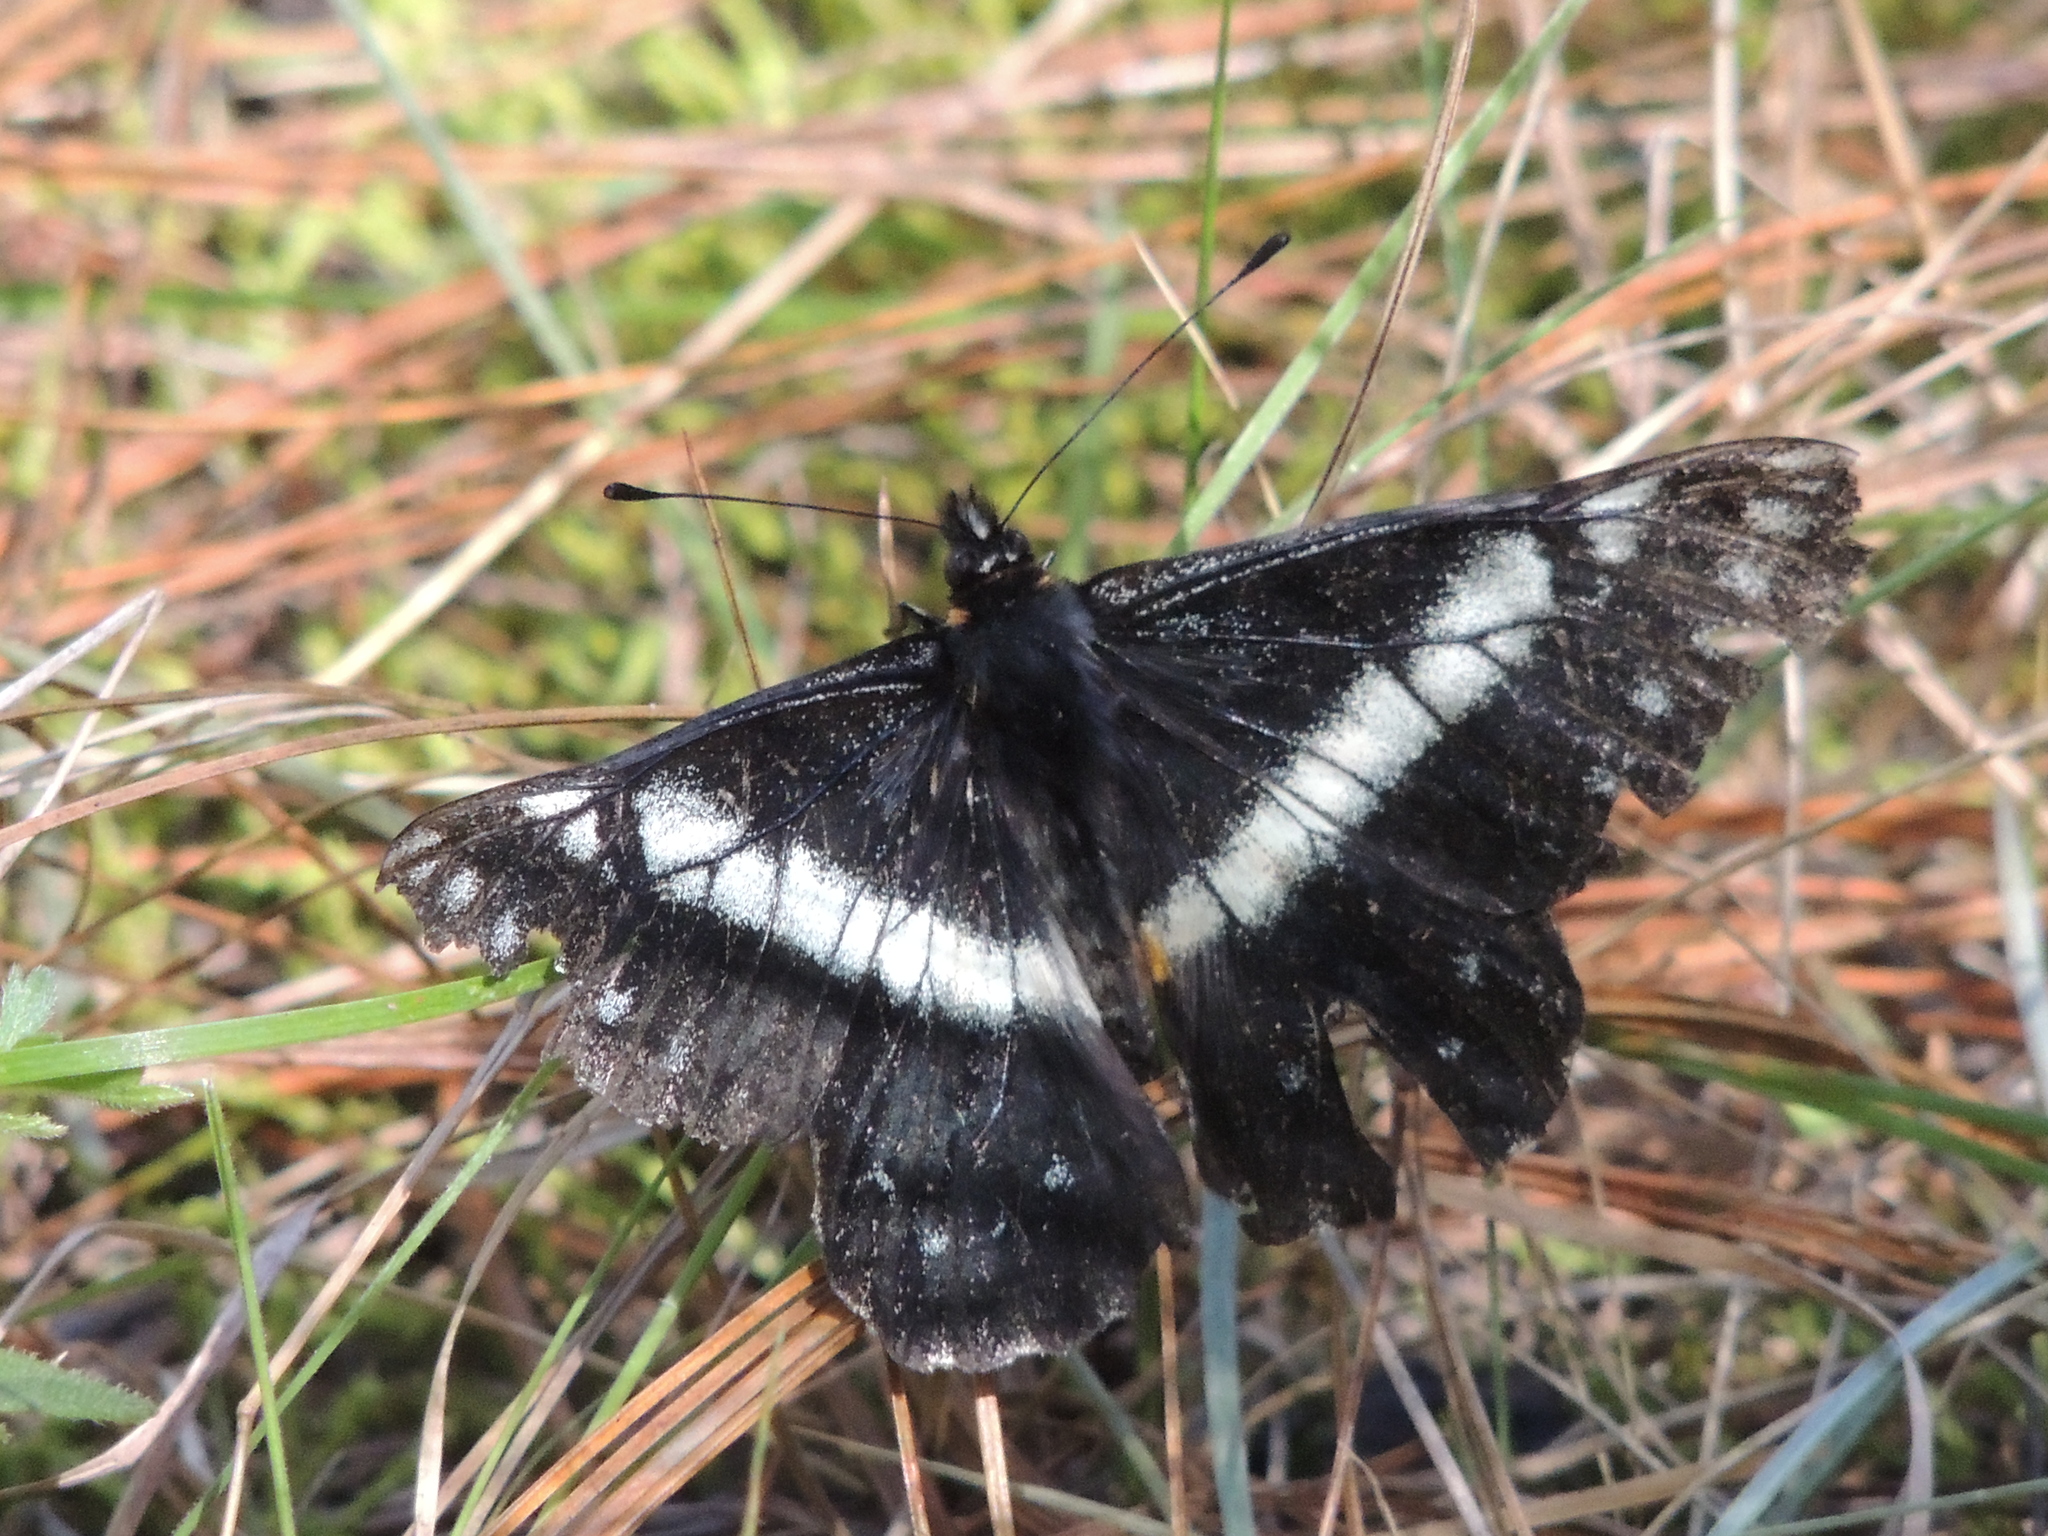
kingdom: Animalia
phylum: Arthropoda
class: Insecta
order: Lepidoptera
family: Pieridae
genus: Archonias
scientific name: Archonias teutila
